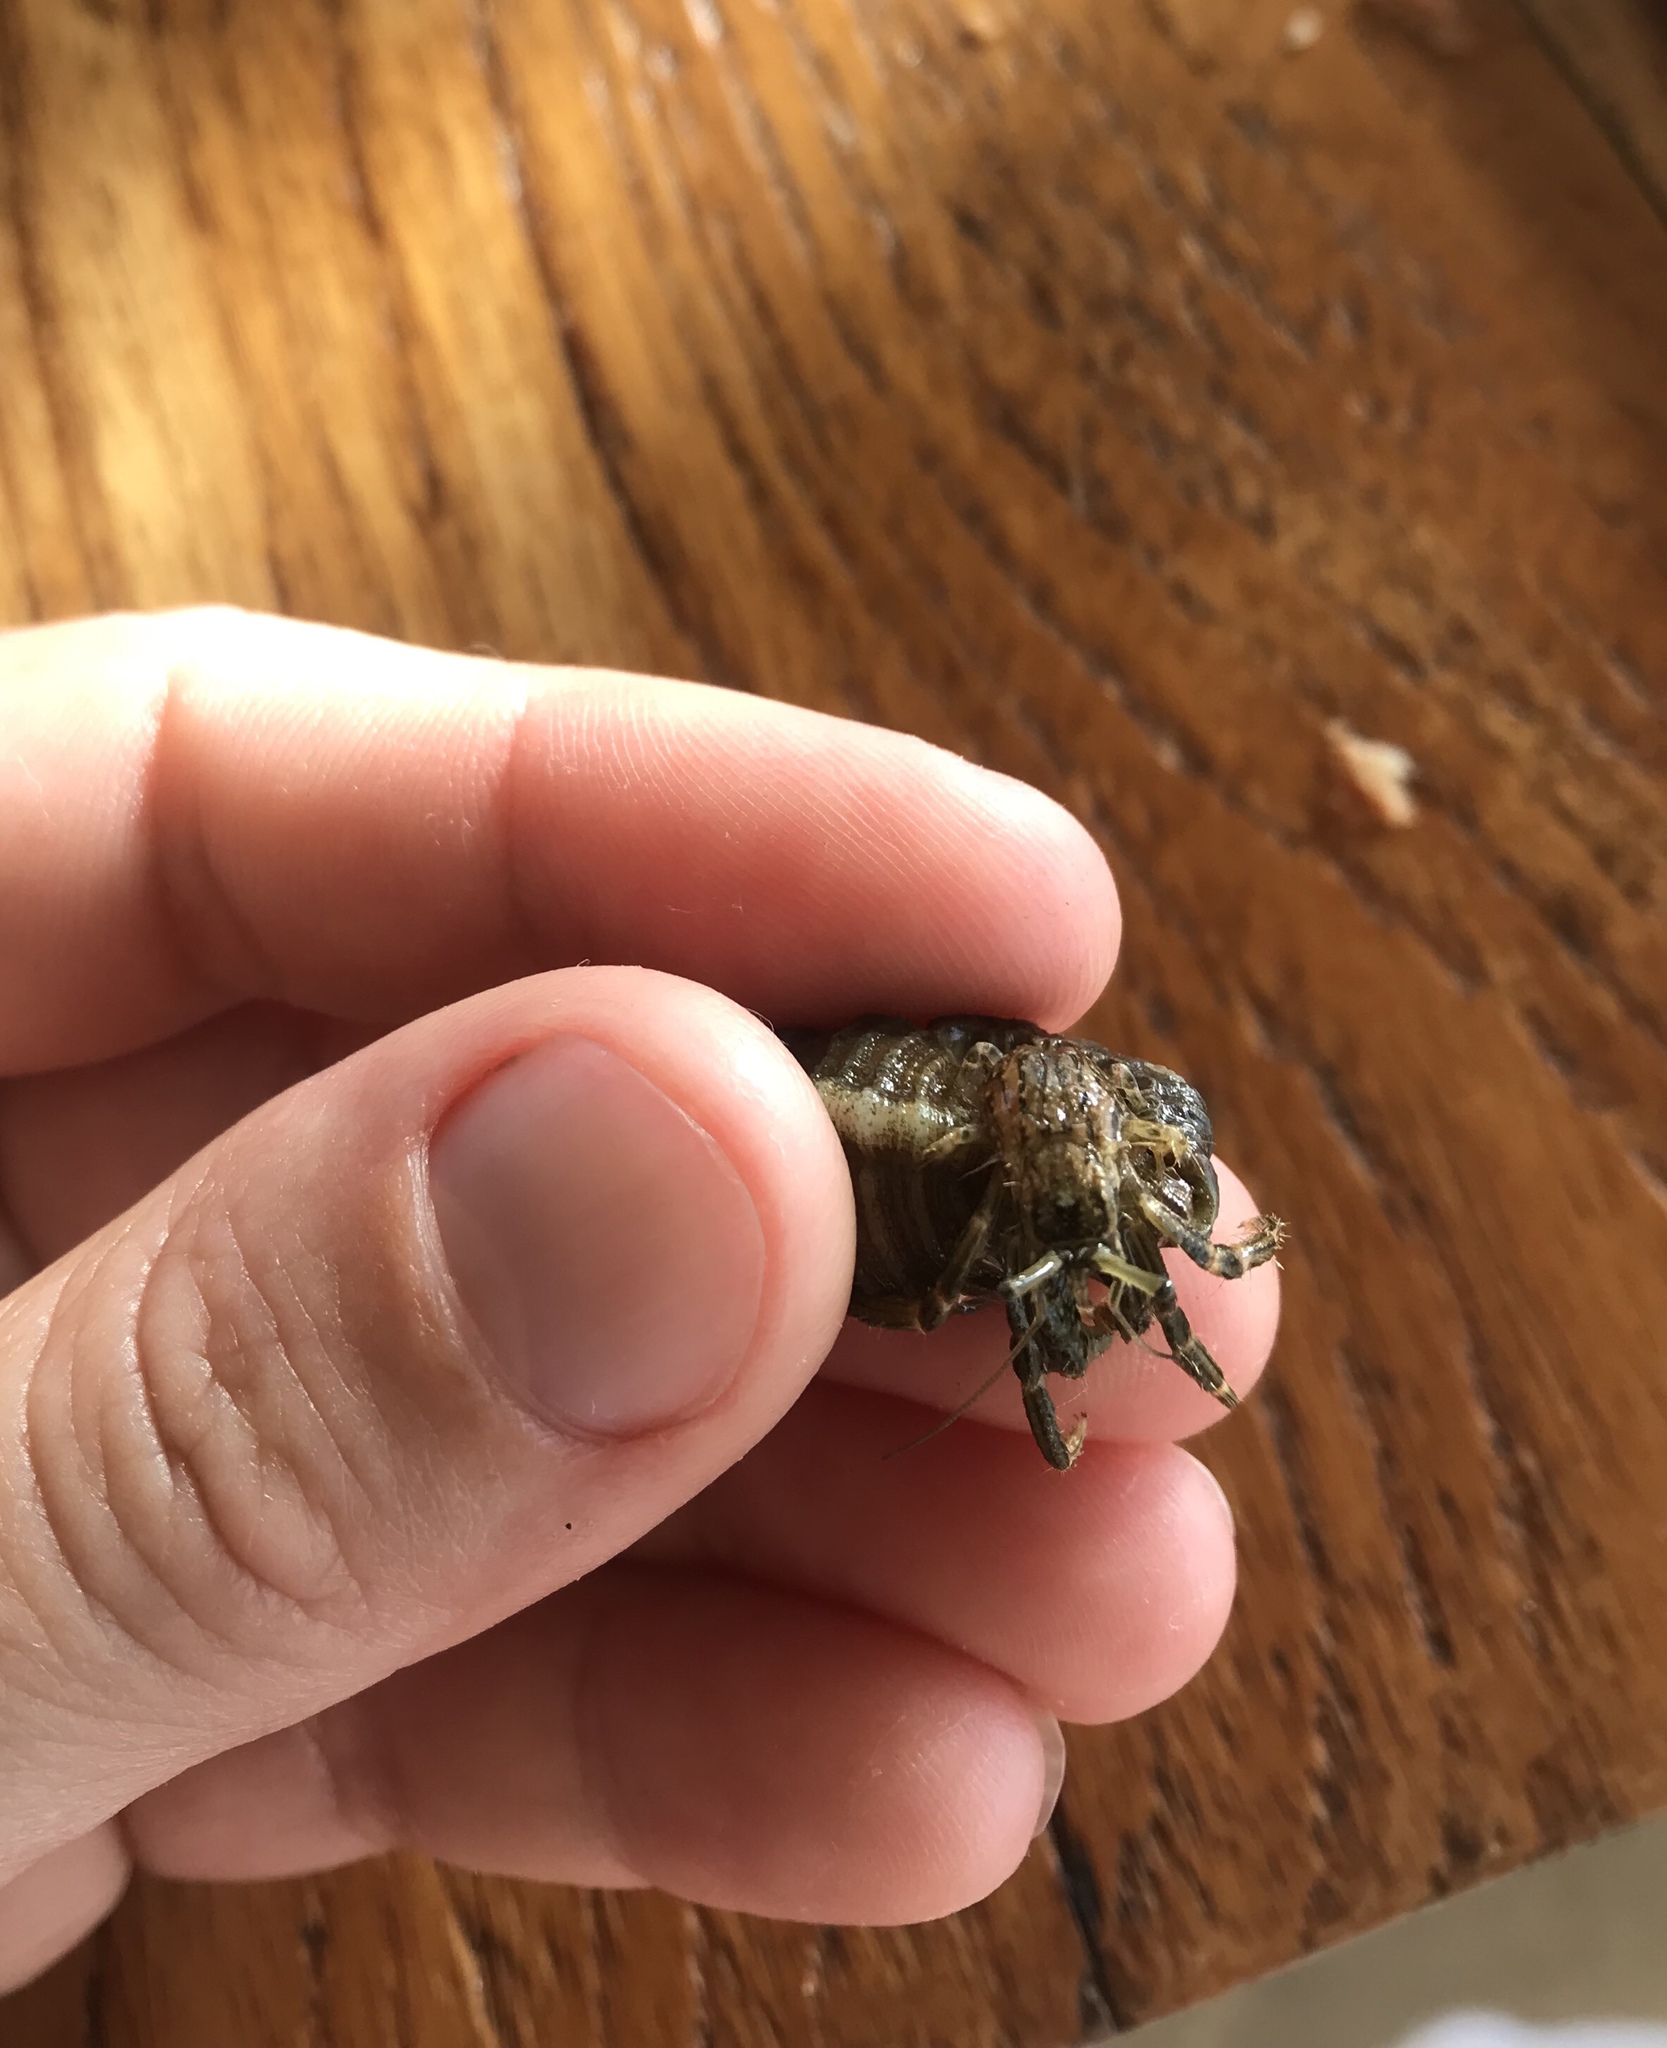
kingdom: Animalia
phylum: Arthropoda
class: Malacostraca
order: Decapoda
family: Diogenidae
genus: Clibanarius
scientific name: Clibanarius striolatus
